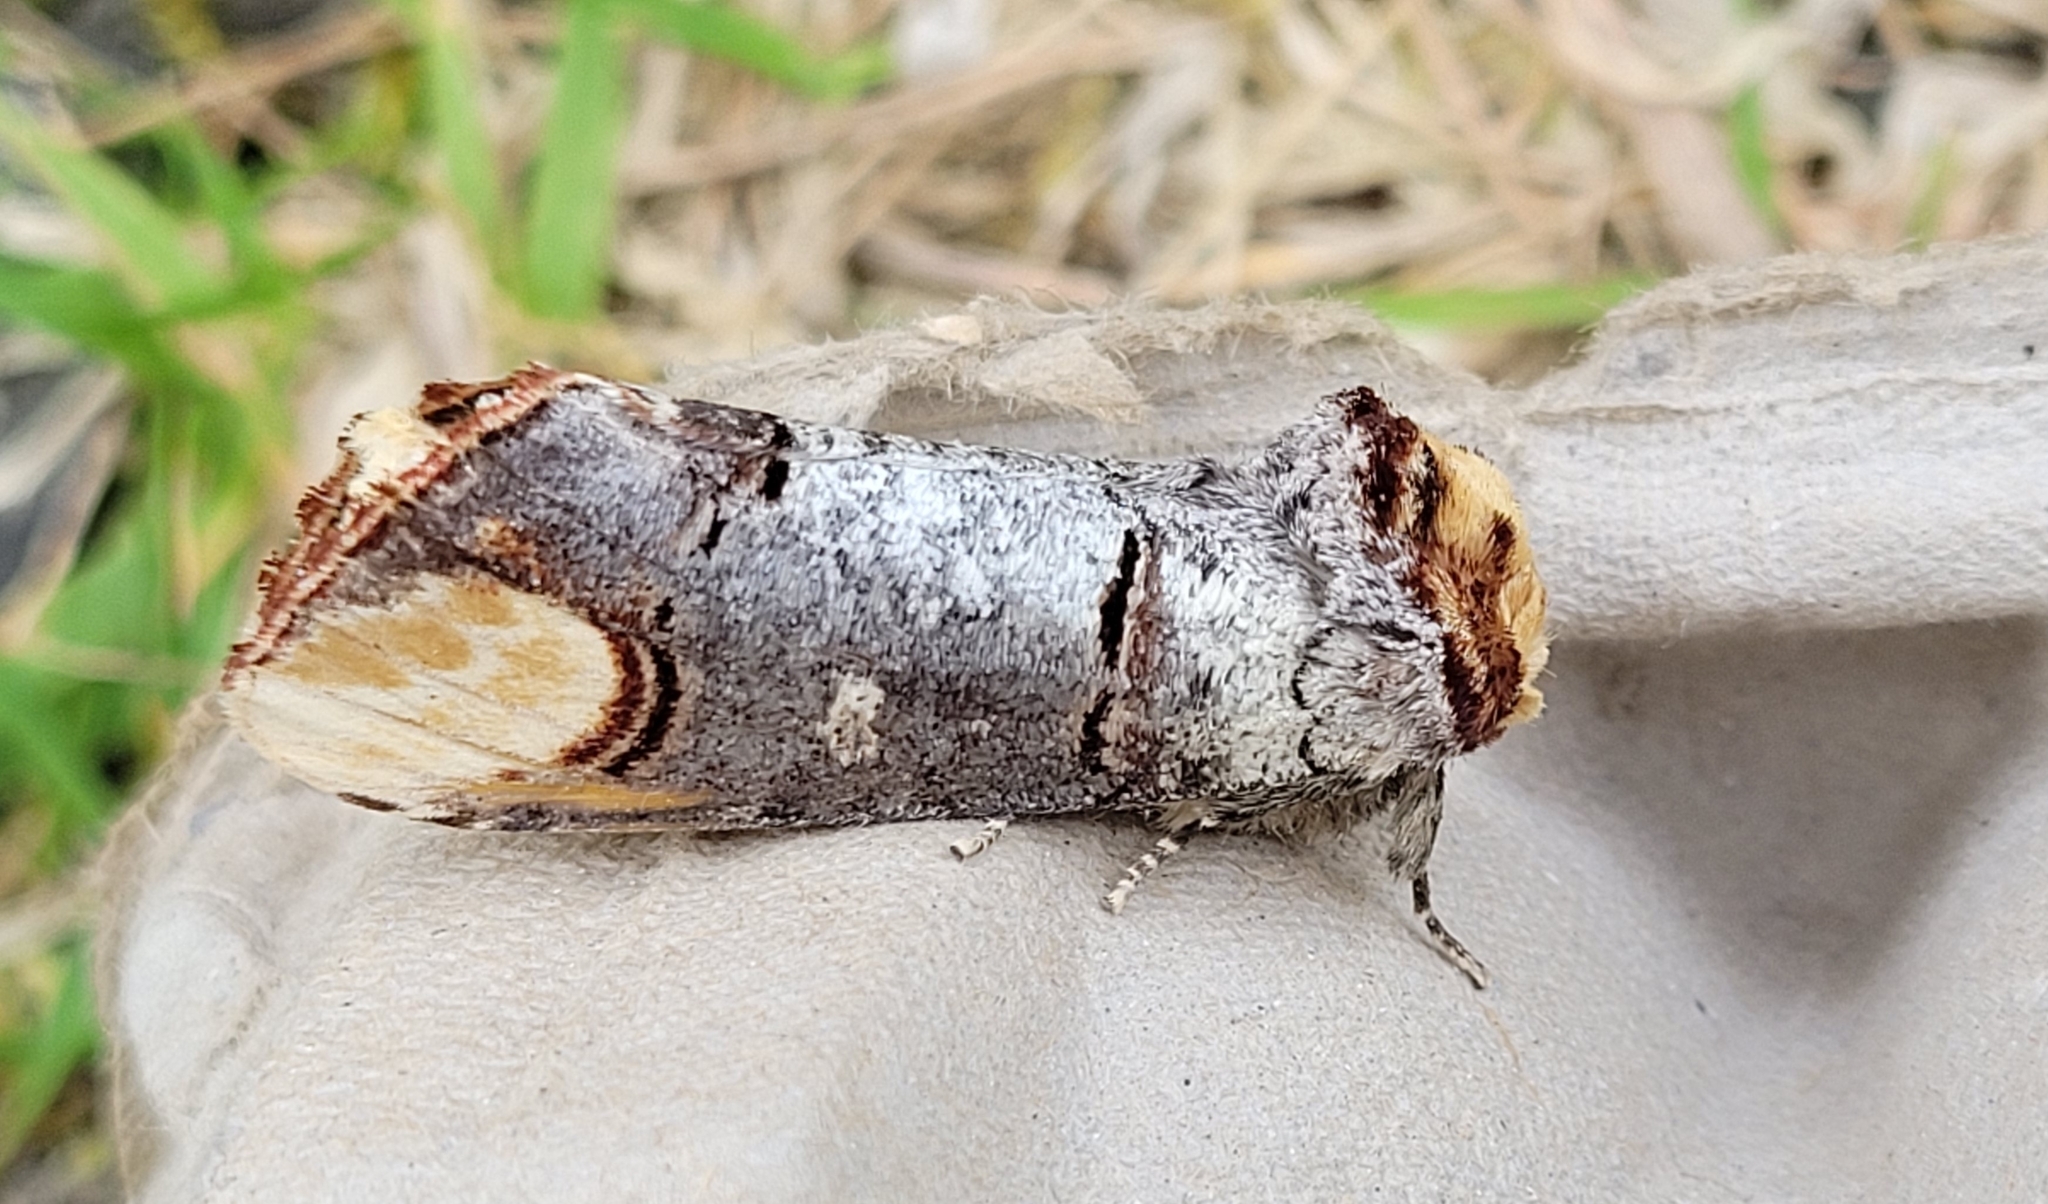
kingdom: Animalia
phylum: Arthropoda
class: Insecta
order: Lepidoptera
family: Notodontidae
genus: Phalera
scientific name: Phalera bucephala
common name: Buff-tip
